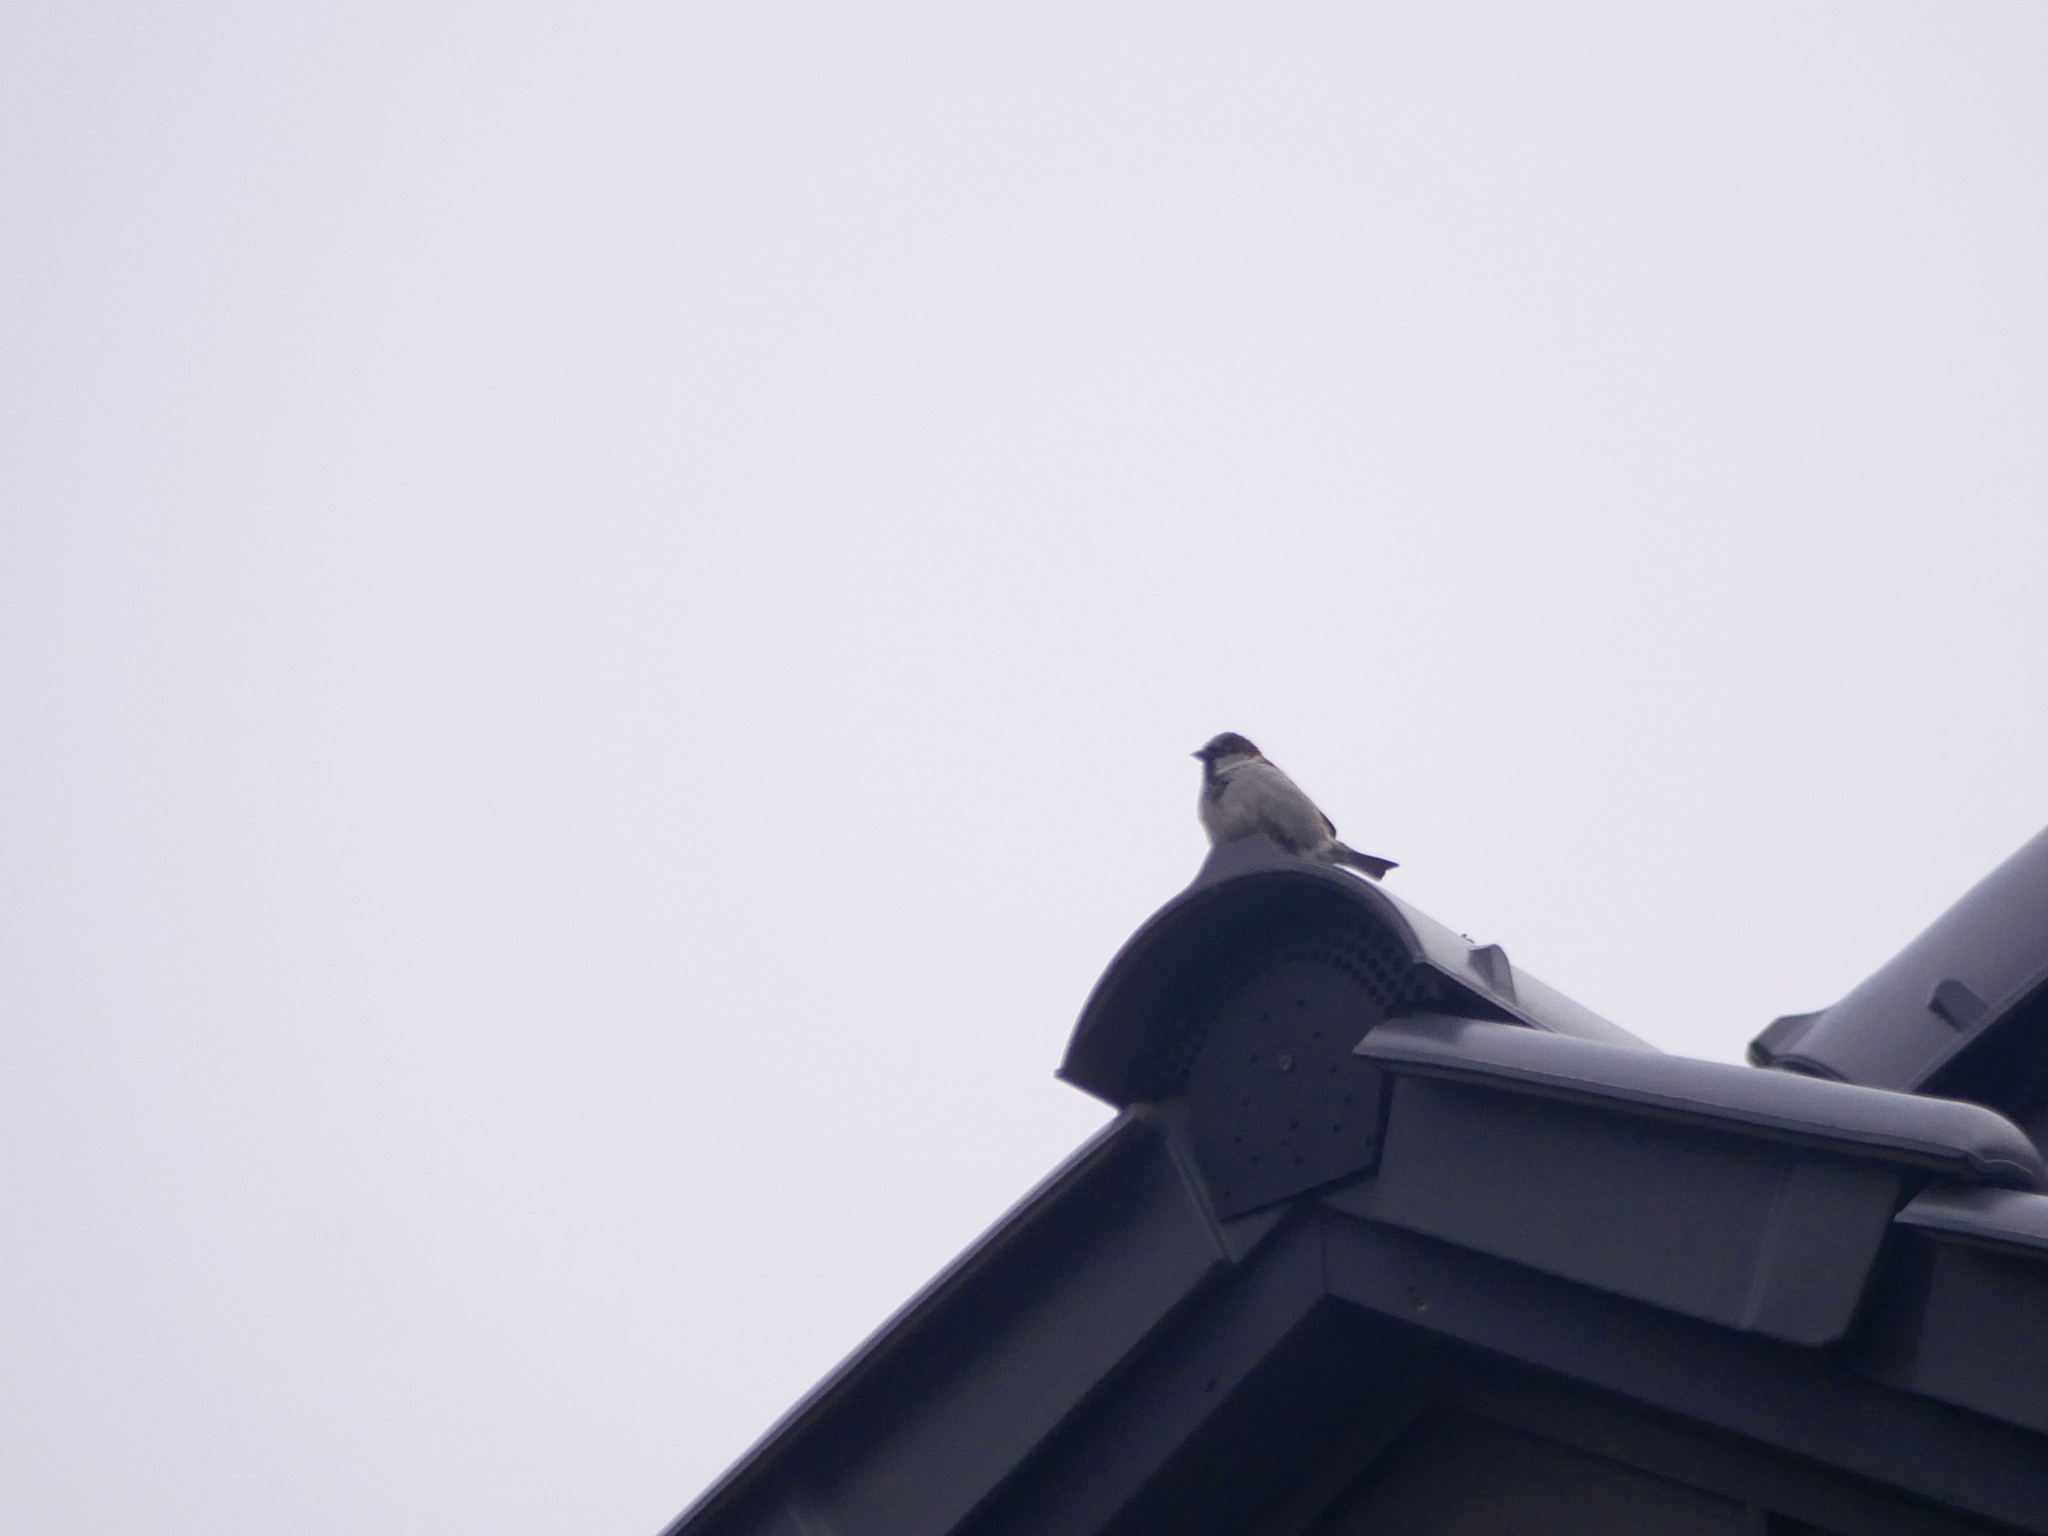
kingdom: Animalia
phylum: Chordata
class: Aves
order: Passeriformes
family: Passeridae
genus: Passer
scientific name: Passer domesticus
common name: House sparrow
